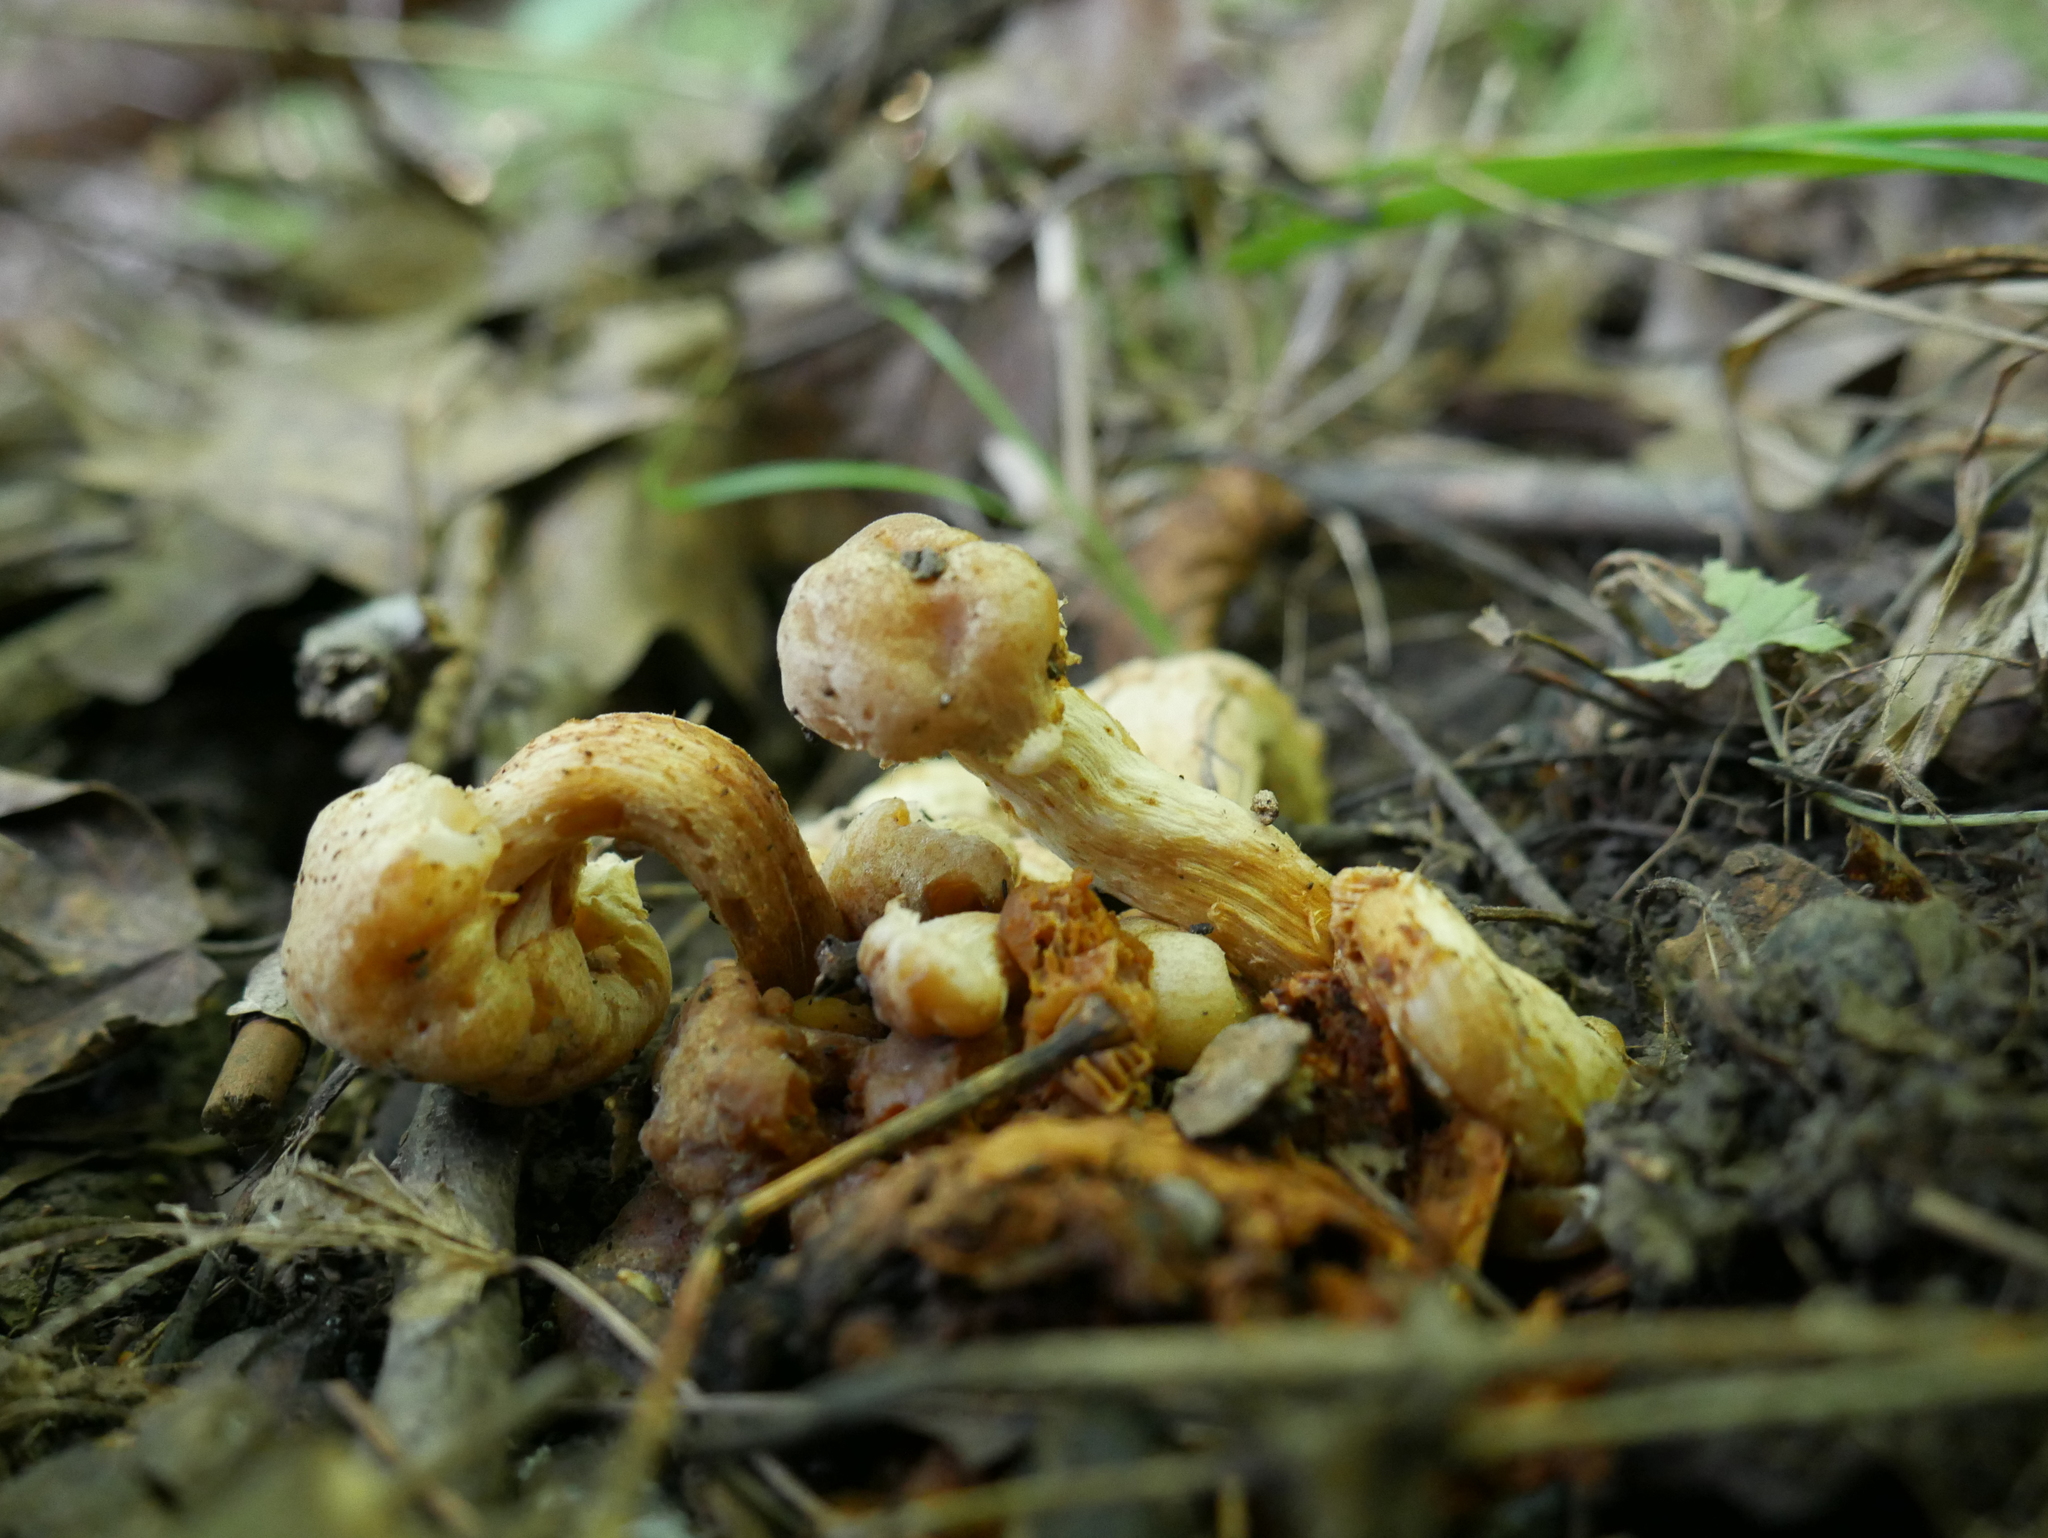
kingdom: Fungi
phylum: Basidiomycota
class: Agaricomycetes
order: Agaricales
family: Physalacriaceae
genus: Desarmillaria
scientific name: Desarmillaria caespitosa
